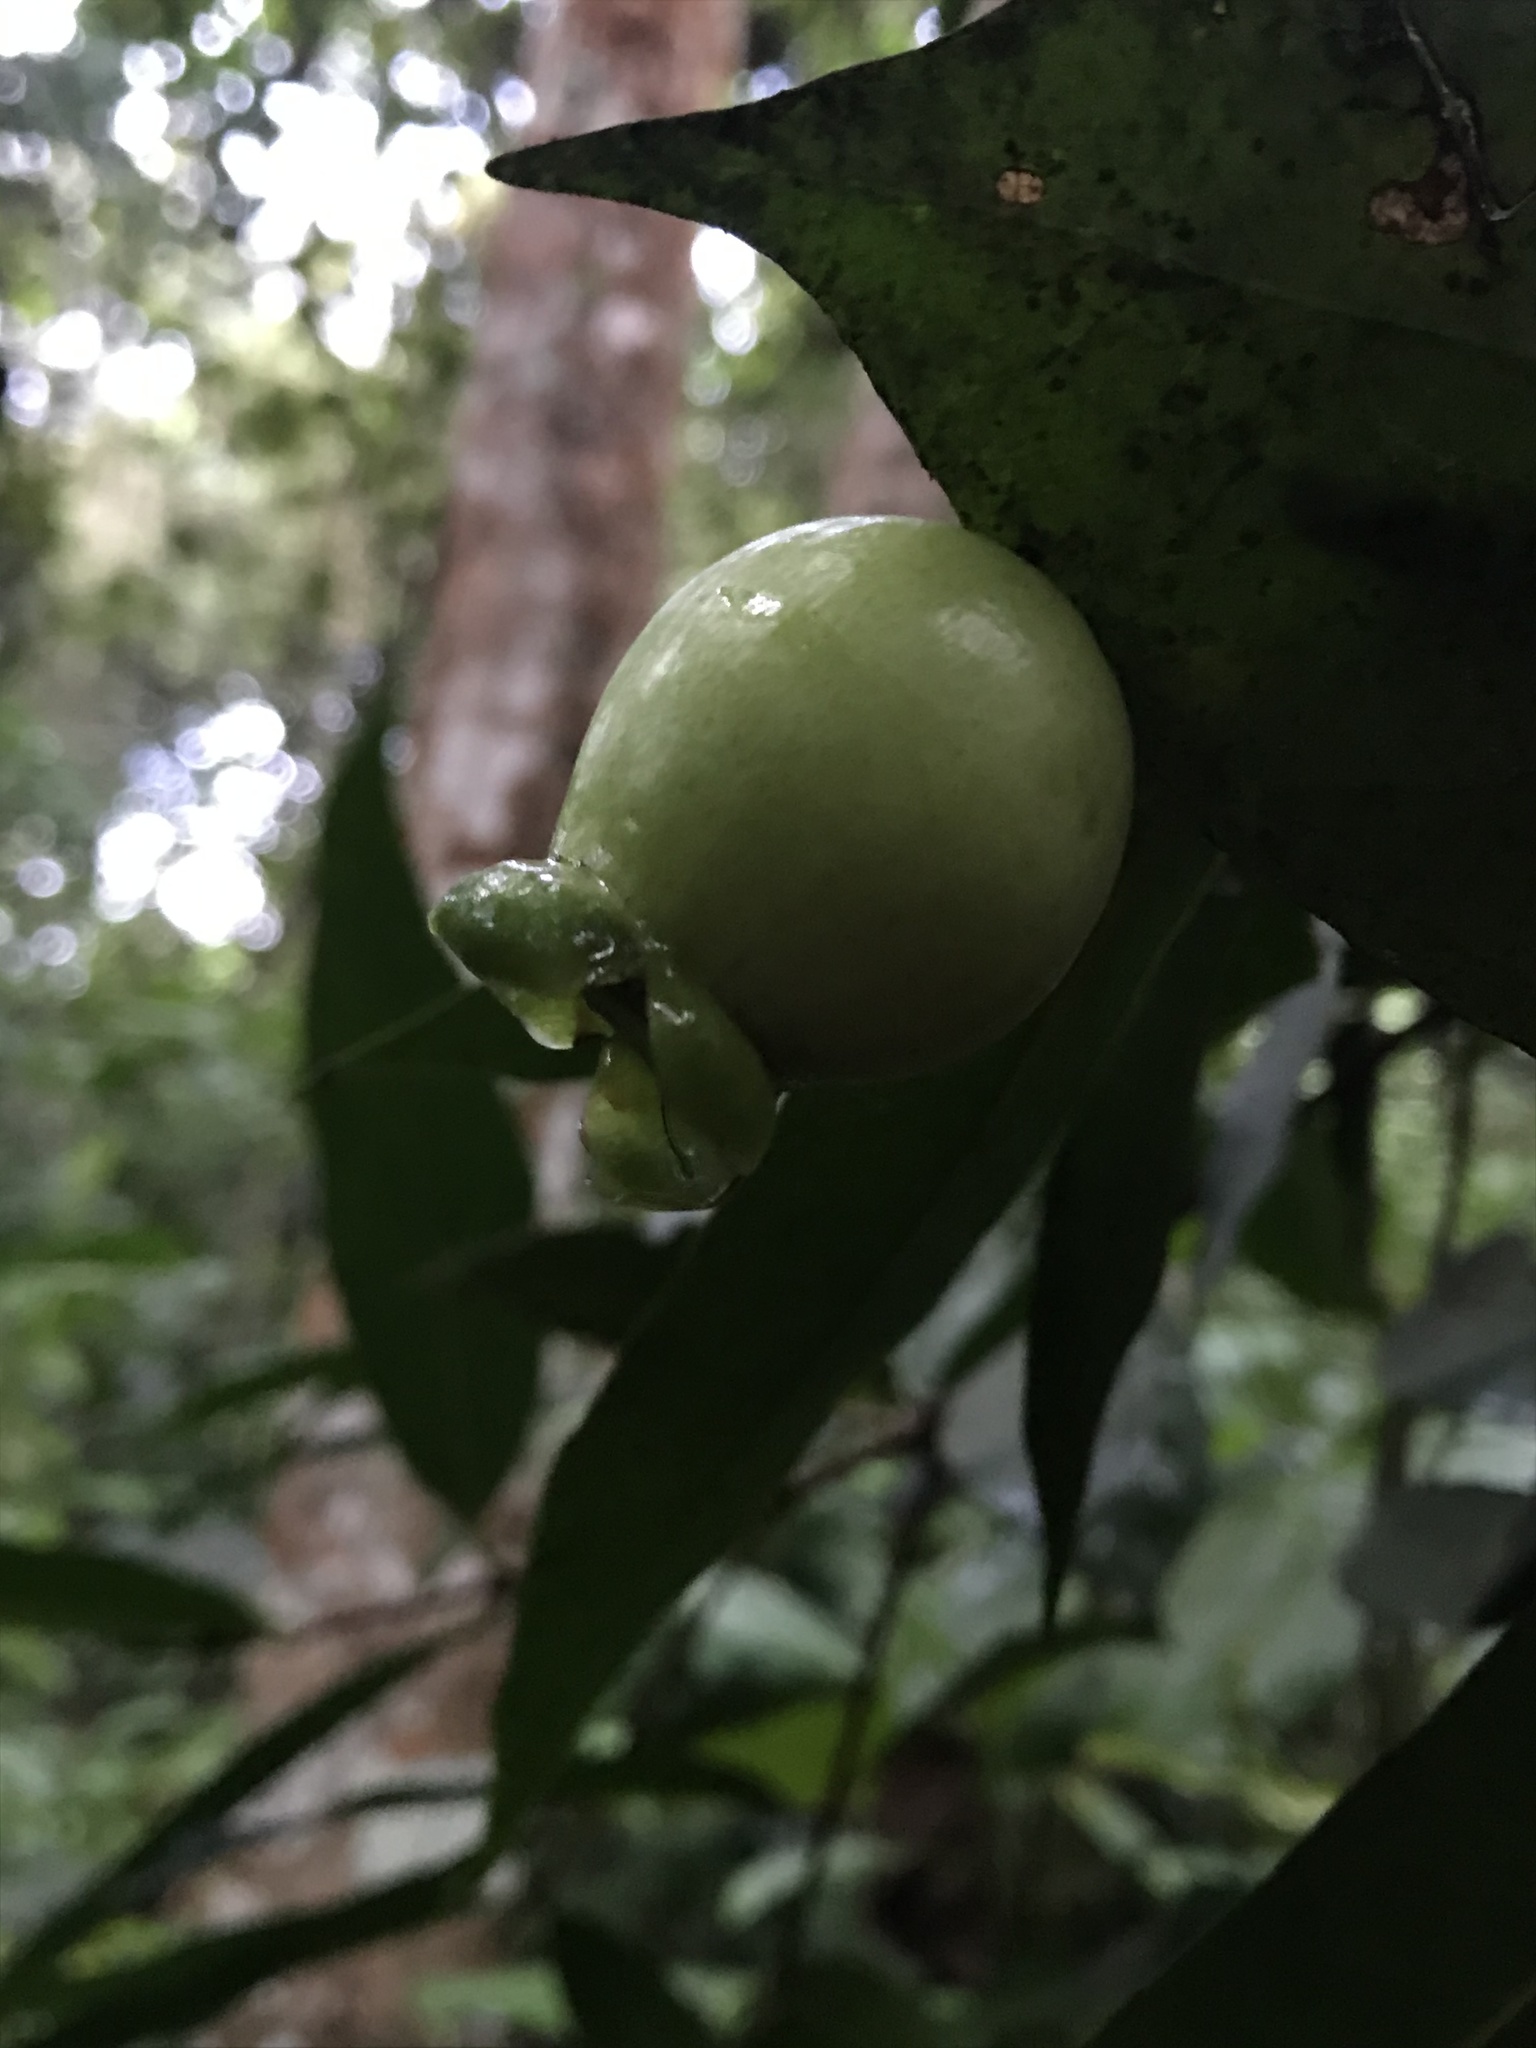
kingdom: Plantae
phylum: Tracheophyta
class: Magnoliopsida
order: Myrtales
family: Myrtaceae
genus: Syzygium
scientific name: Syzygium jambos
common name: Malabar plum
